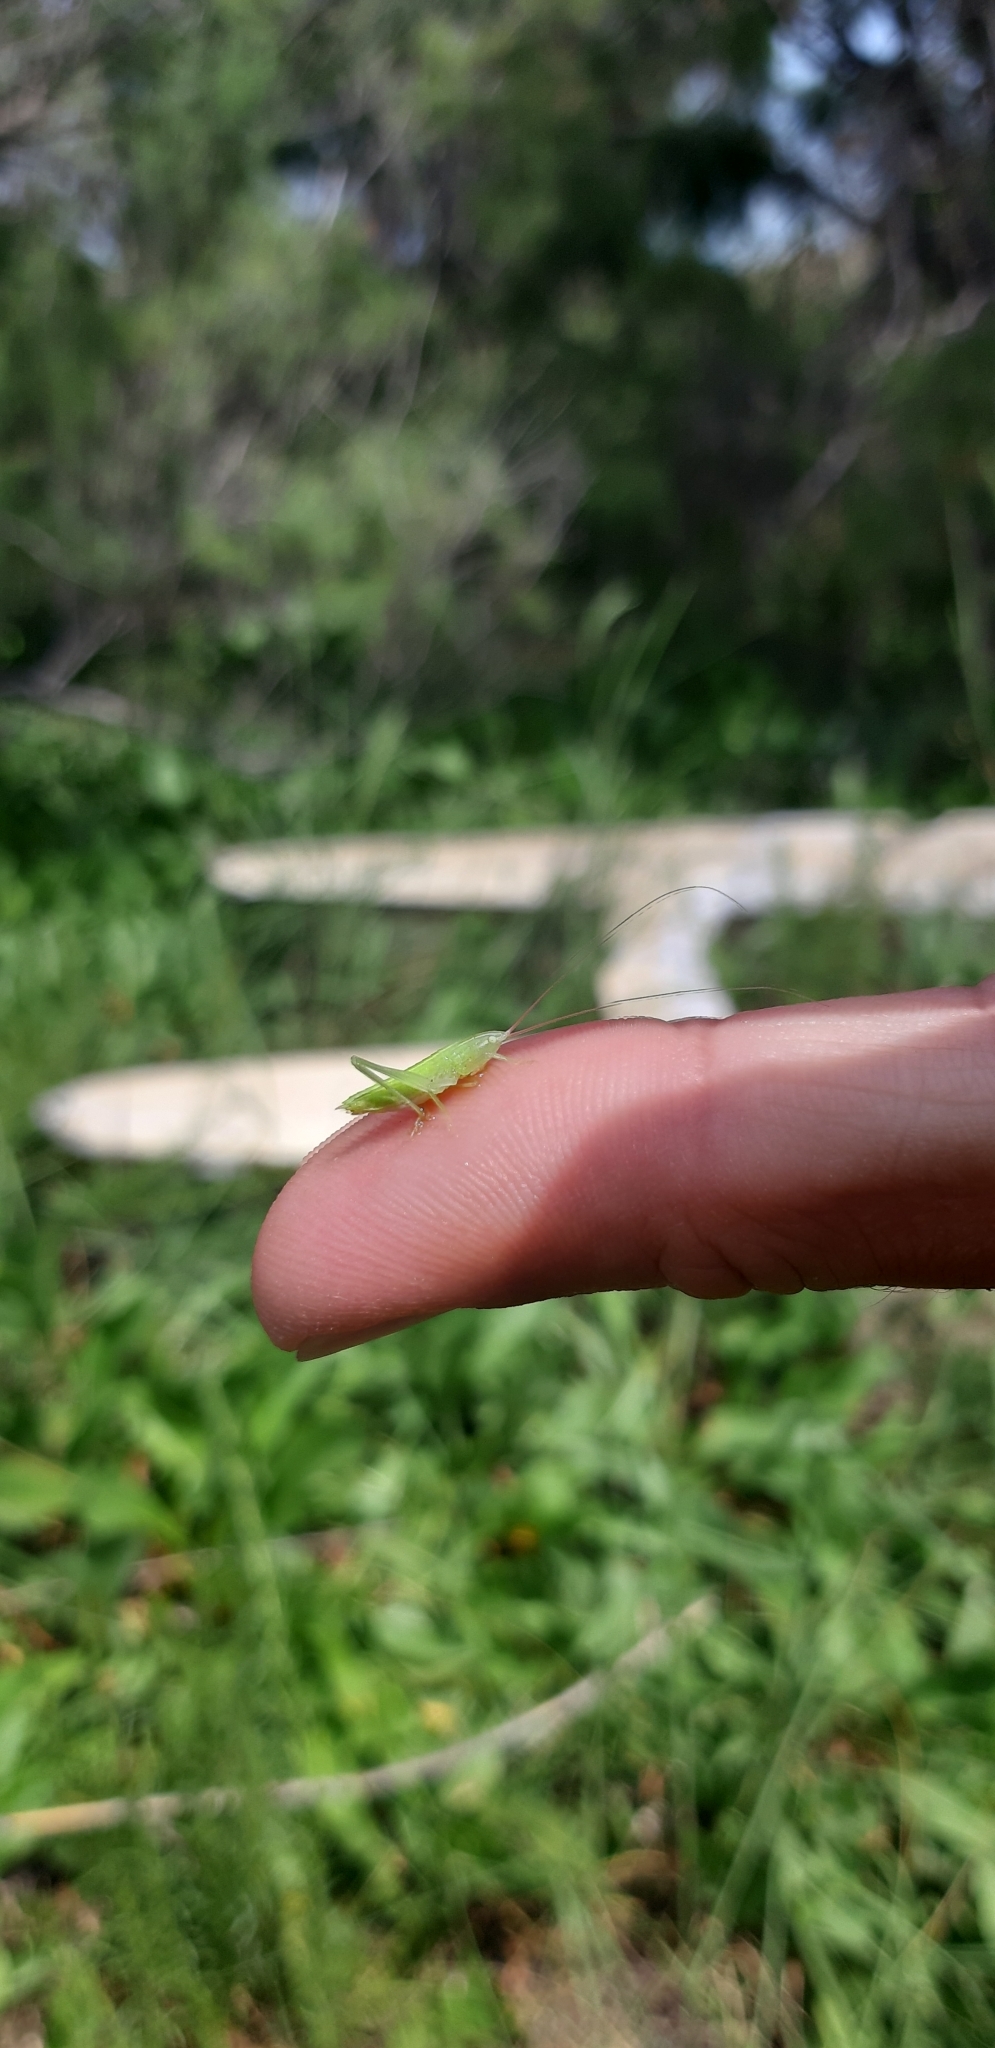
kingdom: Animalia
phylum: Arthropoda
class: Insecta
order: Orthoptera
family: Tettigoniidae
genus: Ruspolia
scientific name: Ruspolia nitidula
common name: Large conehead
